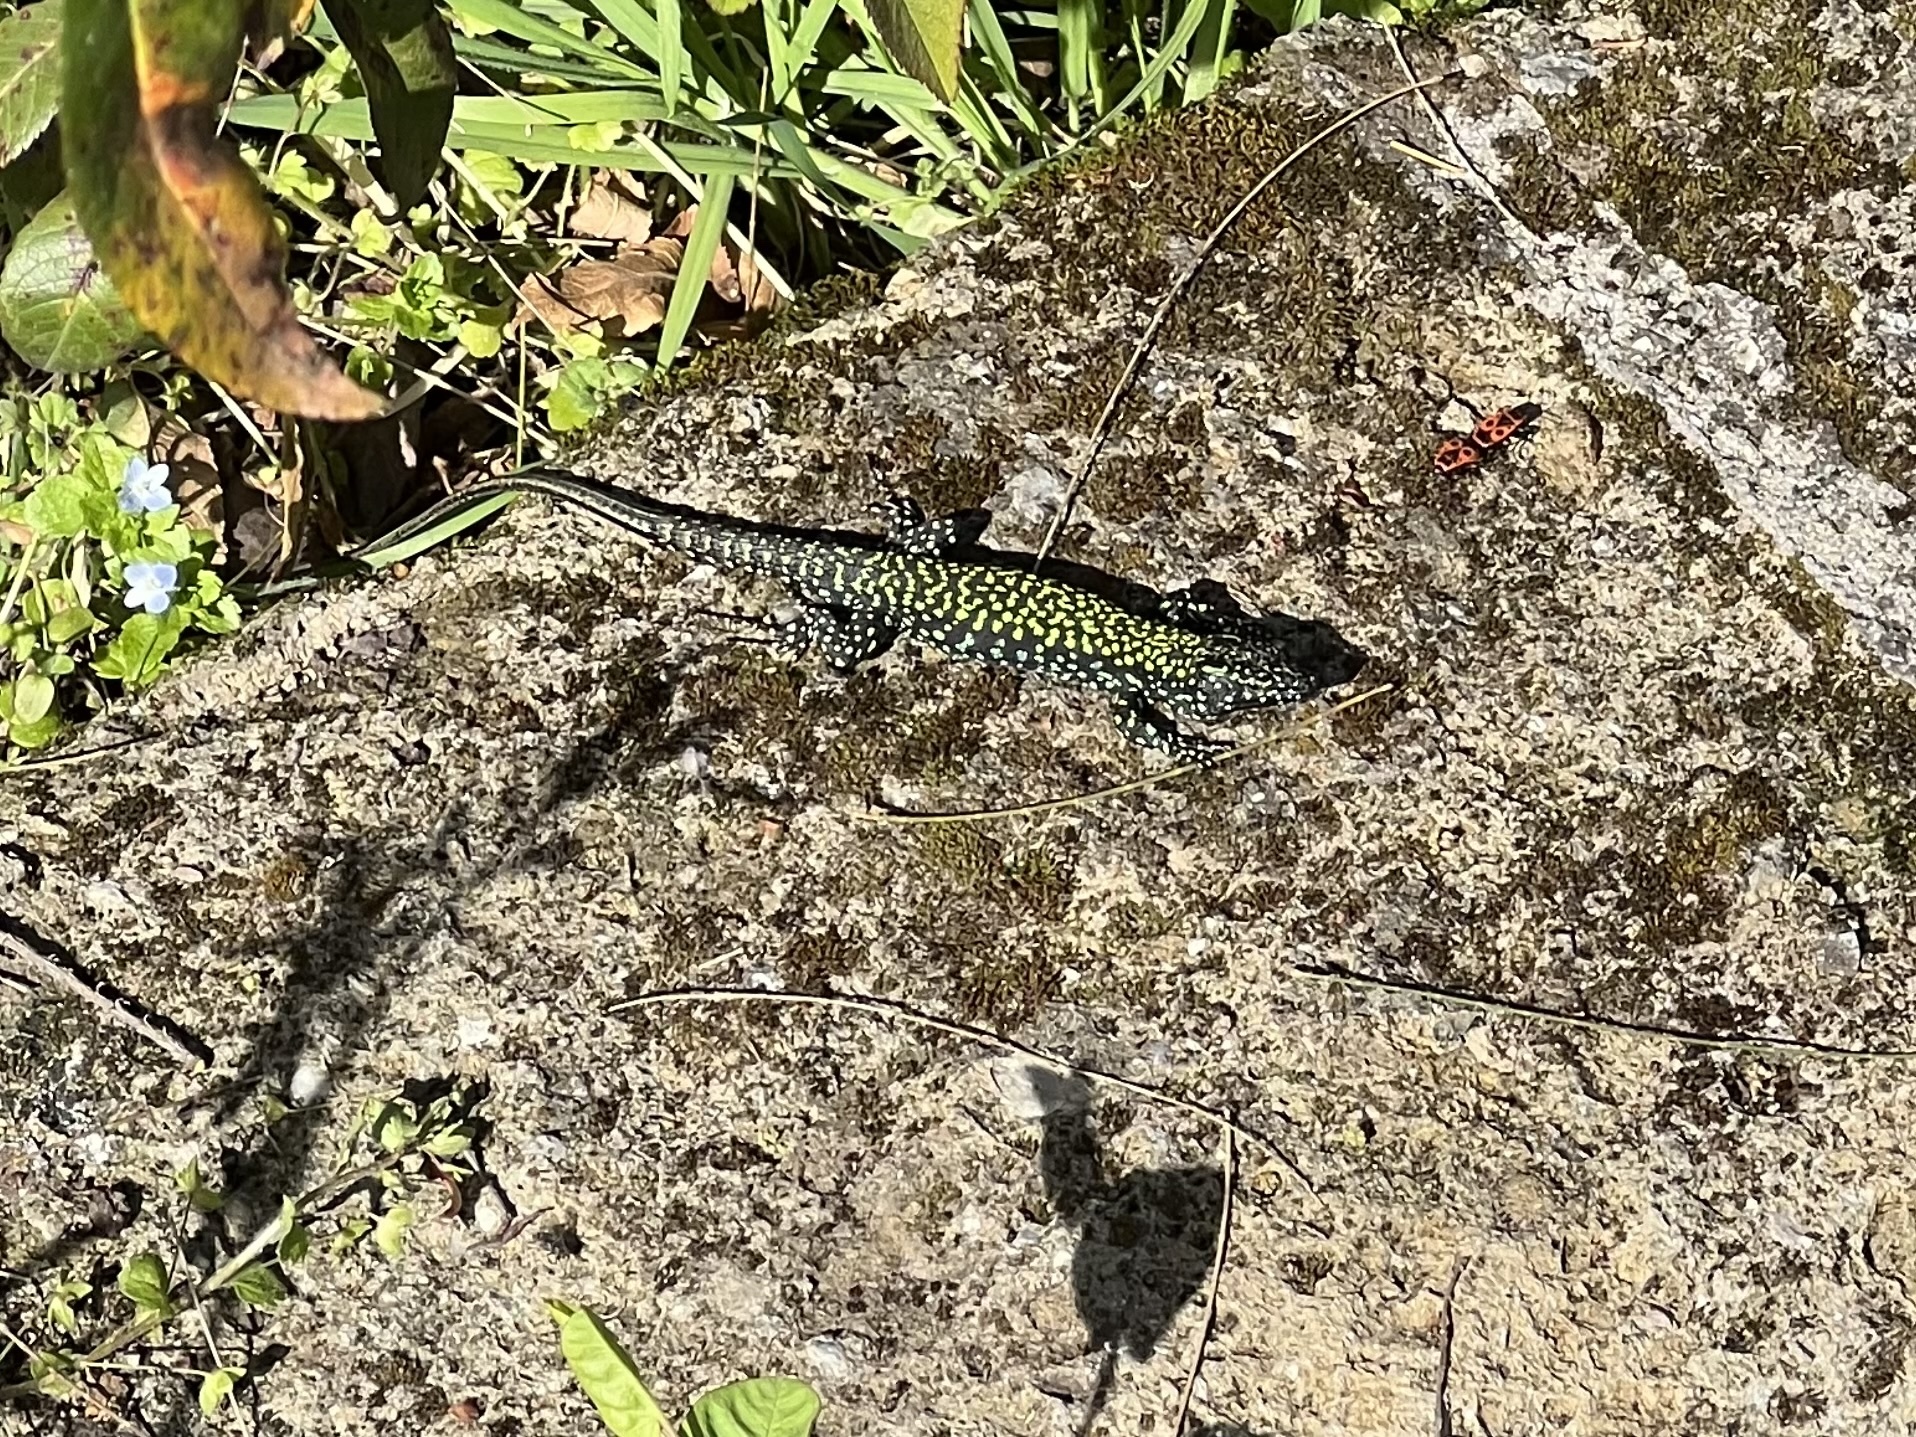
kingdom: Animalia
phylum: Chordata
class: Squamata
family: Lacertidae
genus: Podarcis
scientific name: Podarcis muralis
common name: Common wall lizard
